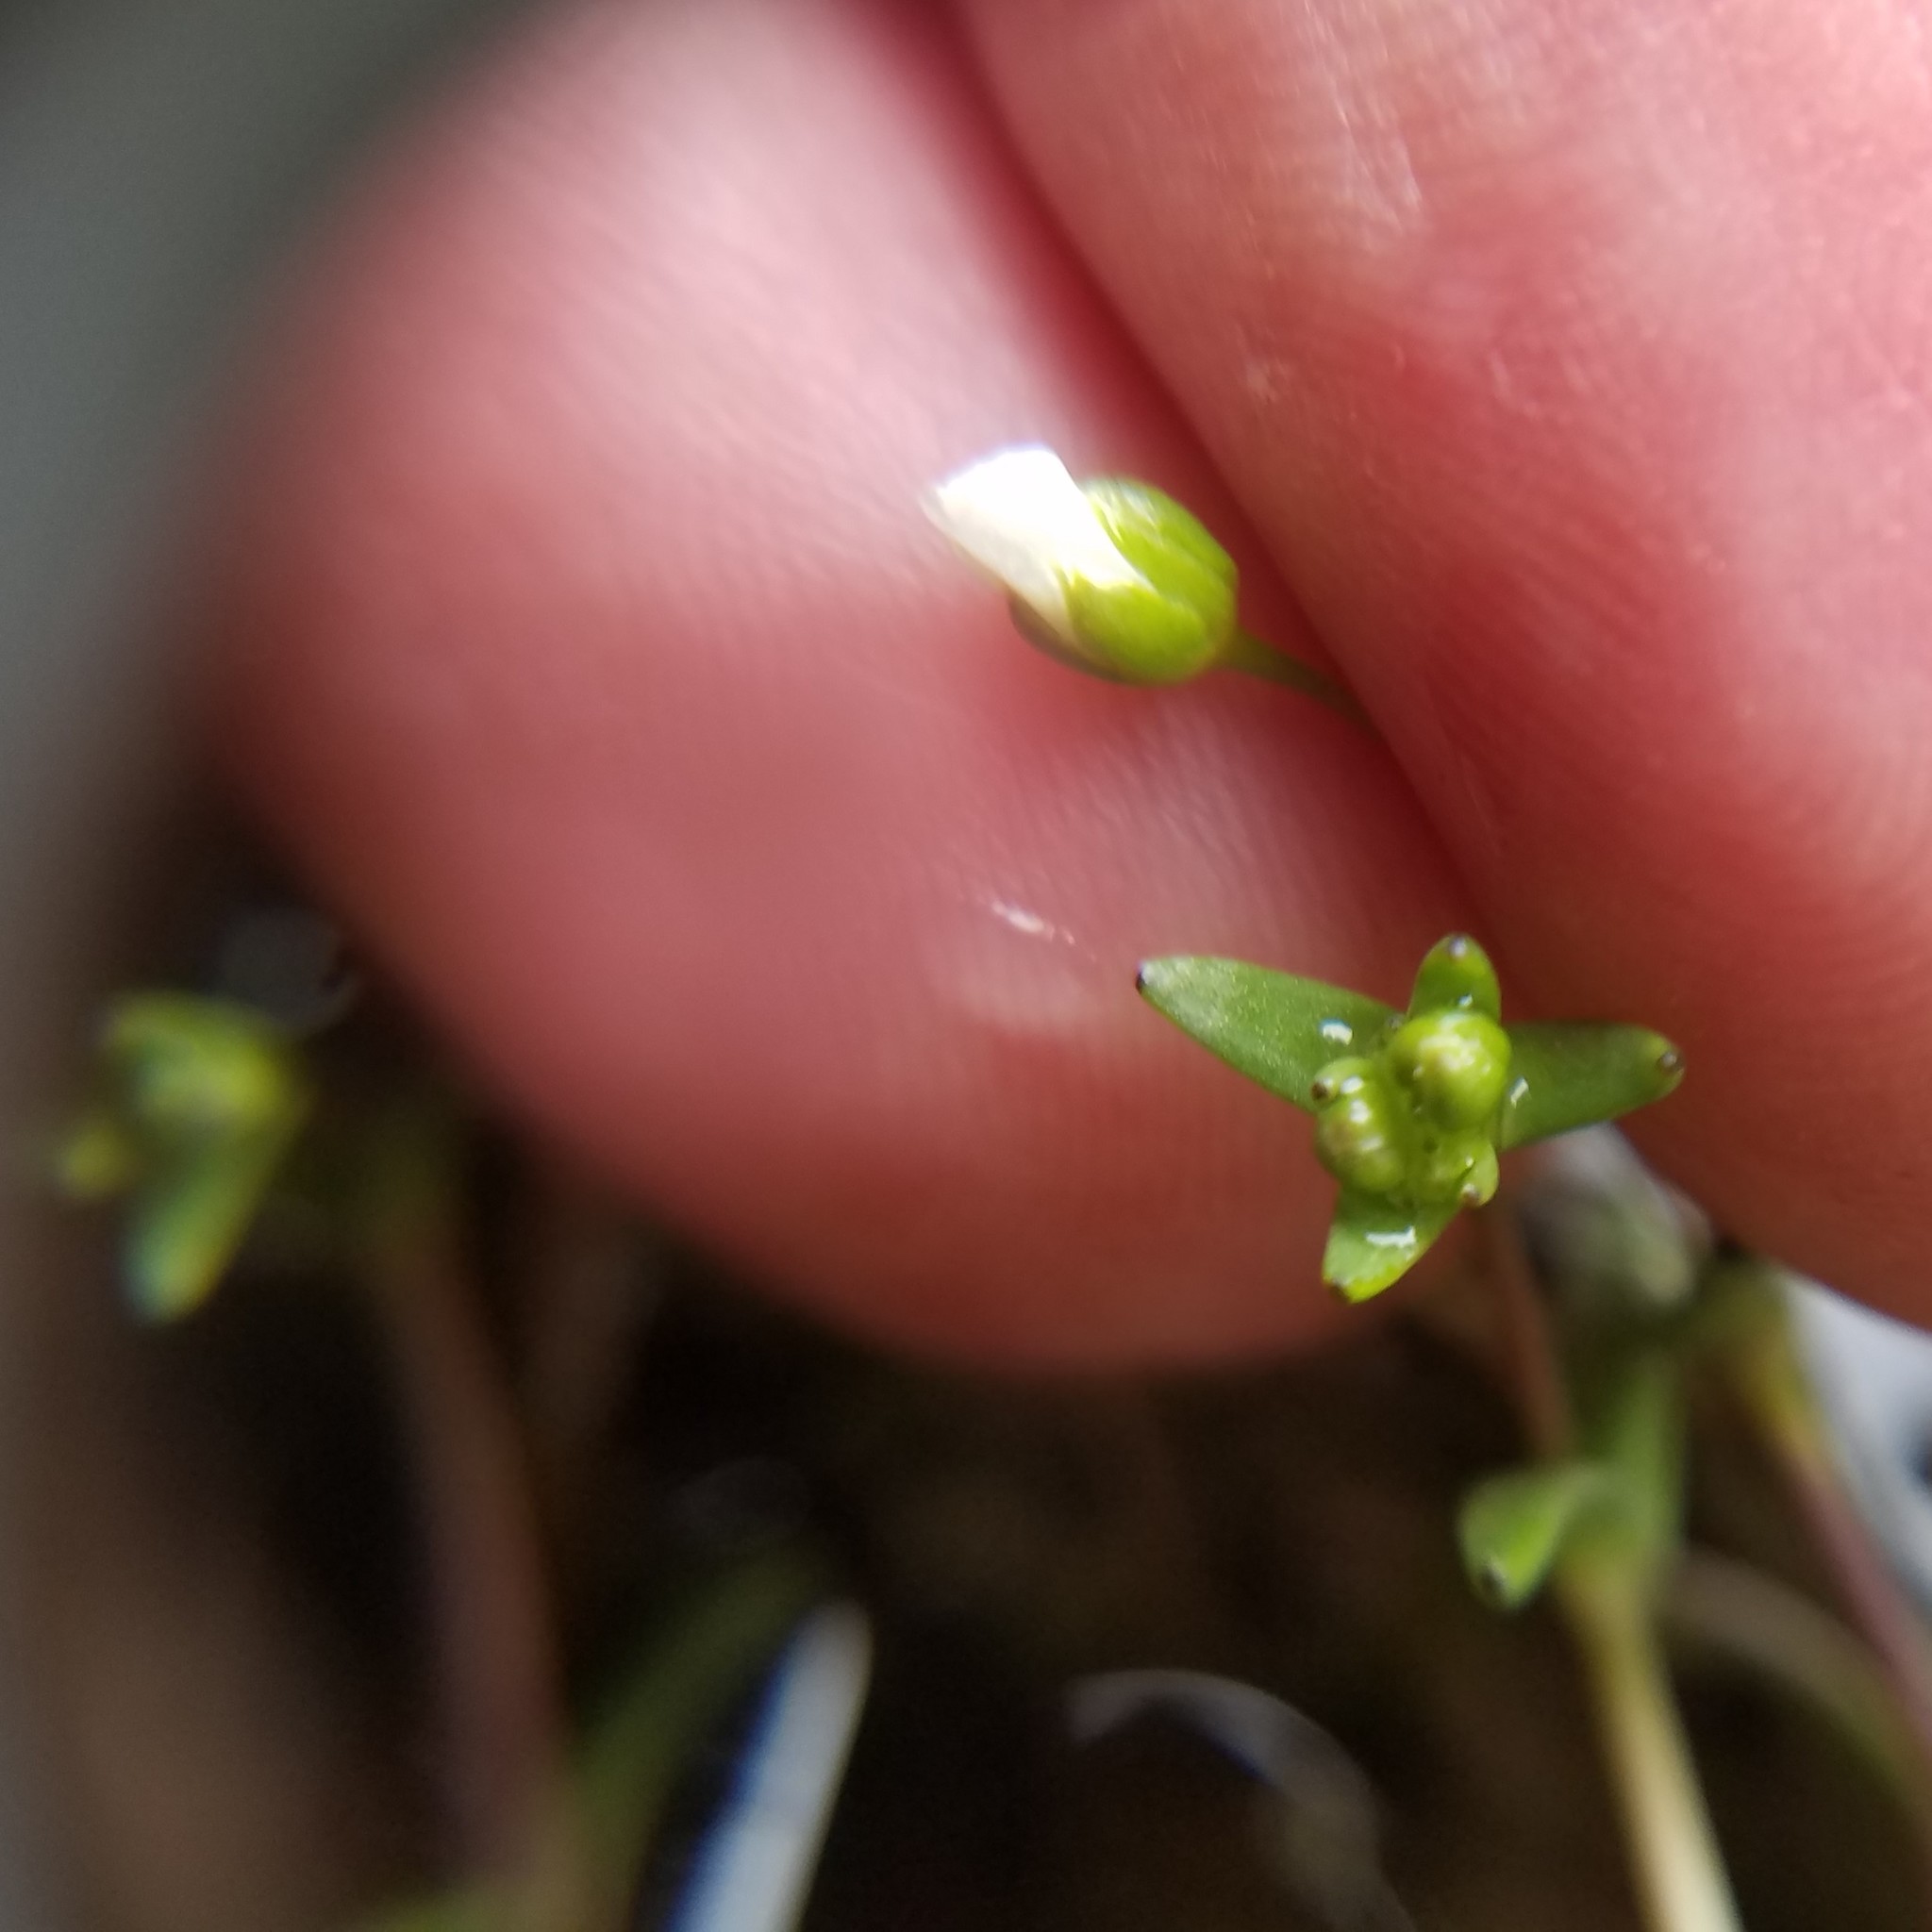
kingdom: Plantae
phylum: Tracheophyta
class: Magnoliopsida
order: Caryophyllales
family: Caryophyllaceae
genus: Geocarpon
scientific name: Geocarpon uniflorum
